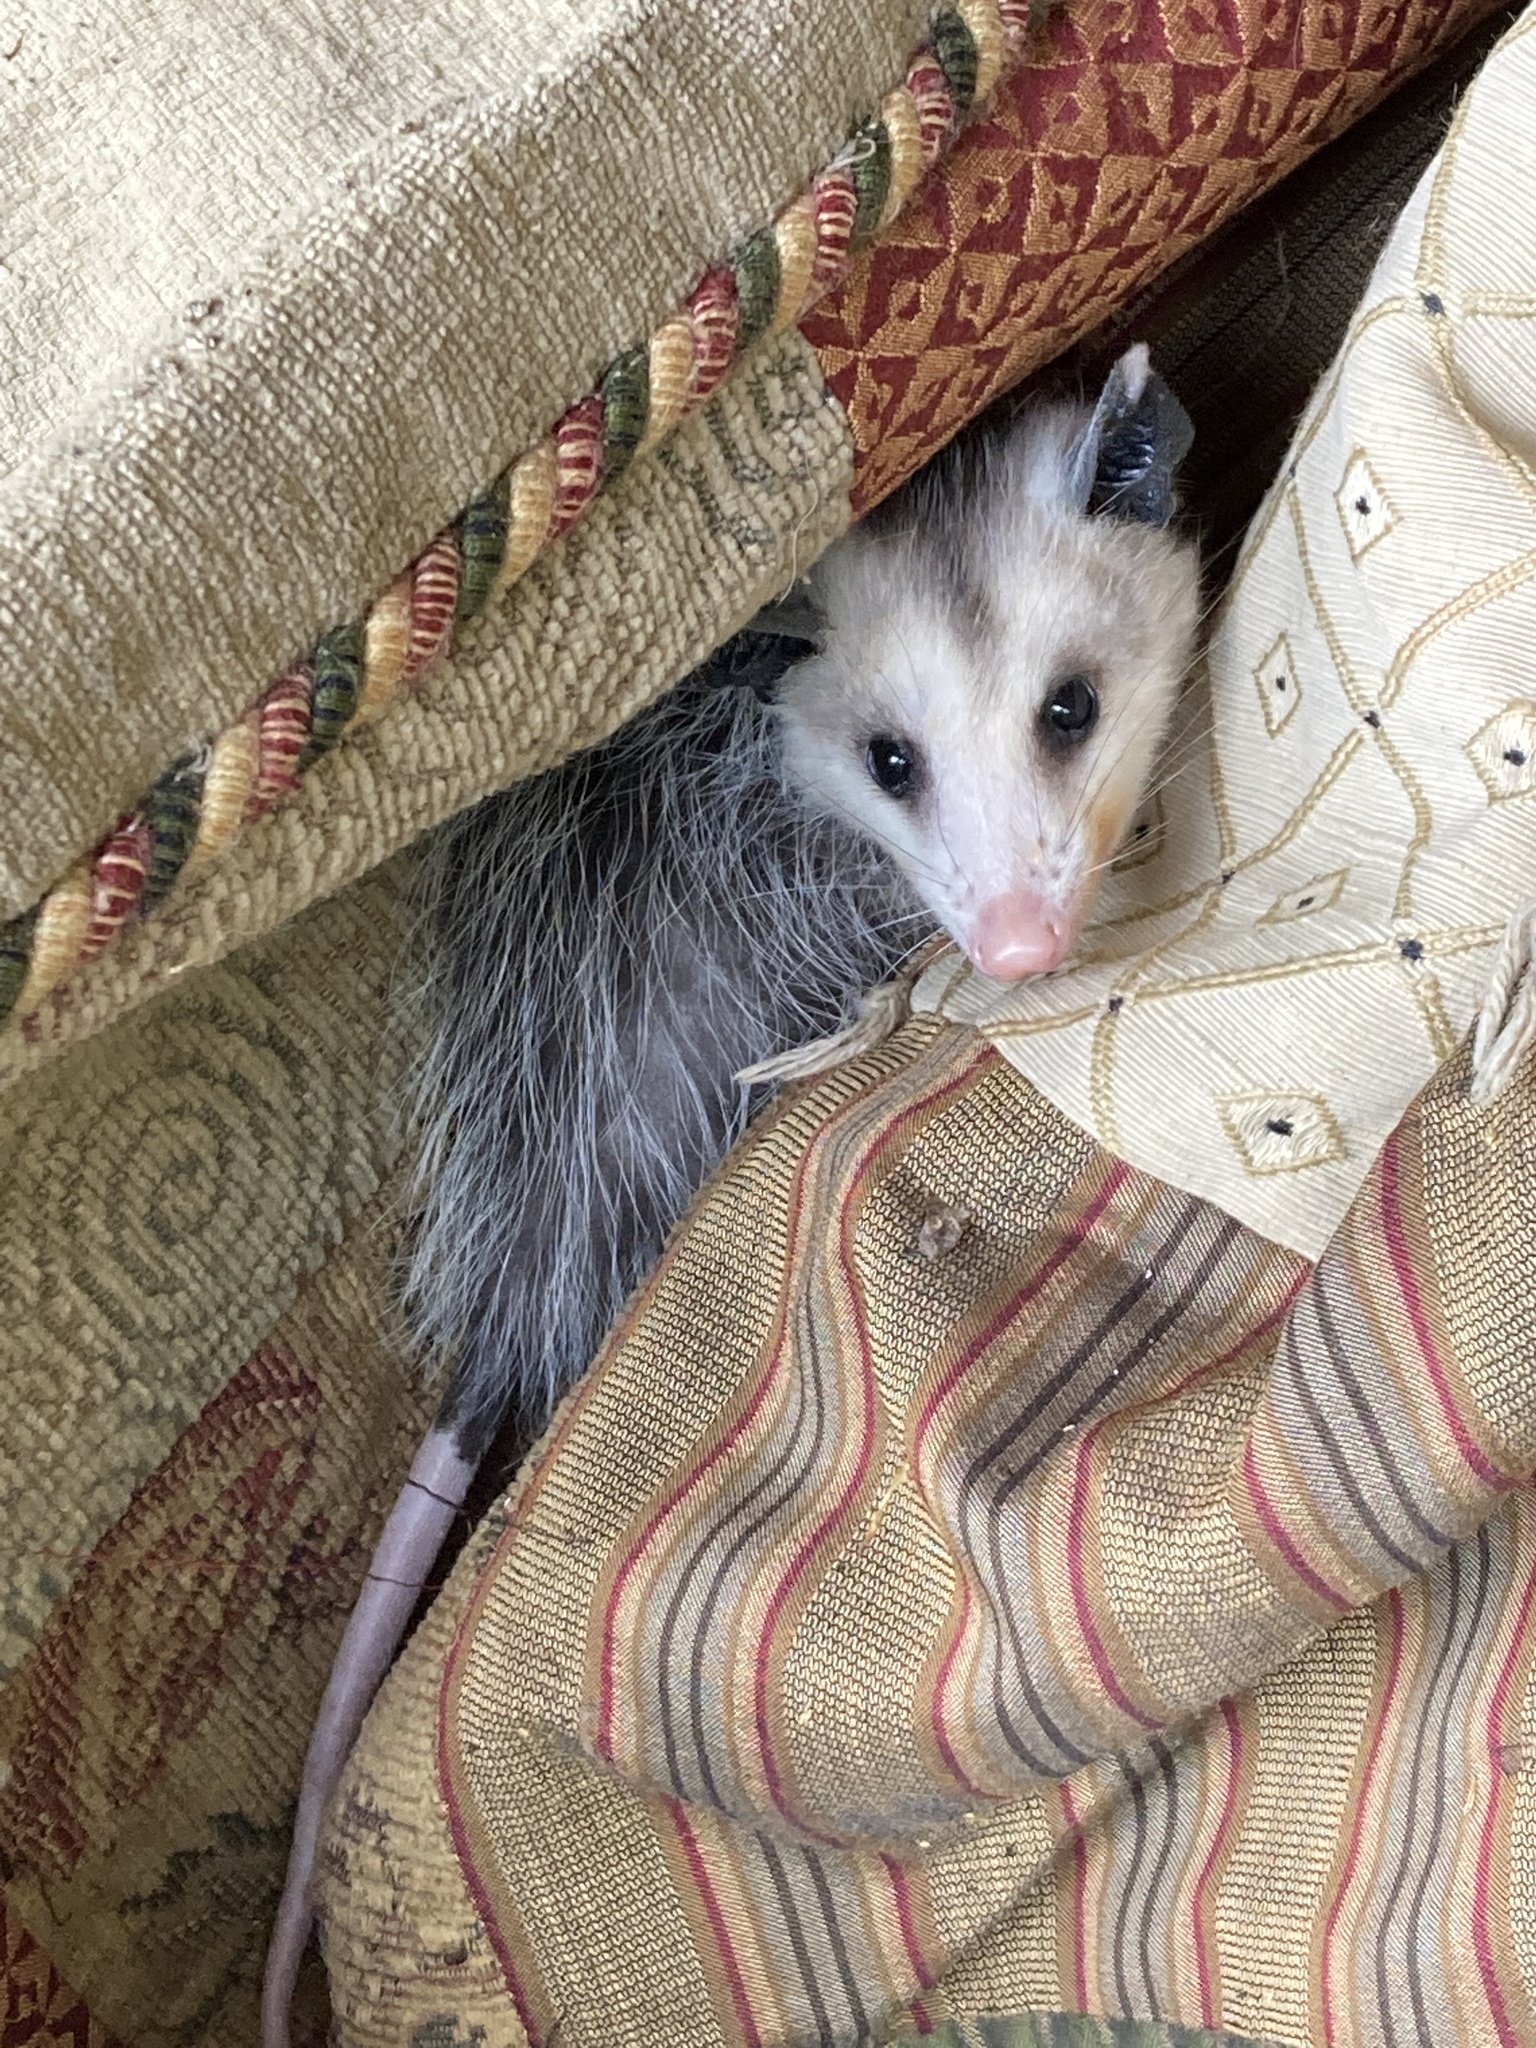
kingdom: Animalia
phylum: Chordata
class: Mammalia
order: Didelphimorphia
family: Didelphidae
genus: Didelphis
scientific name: Didelphis virginiana
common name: Virginia opossum
